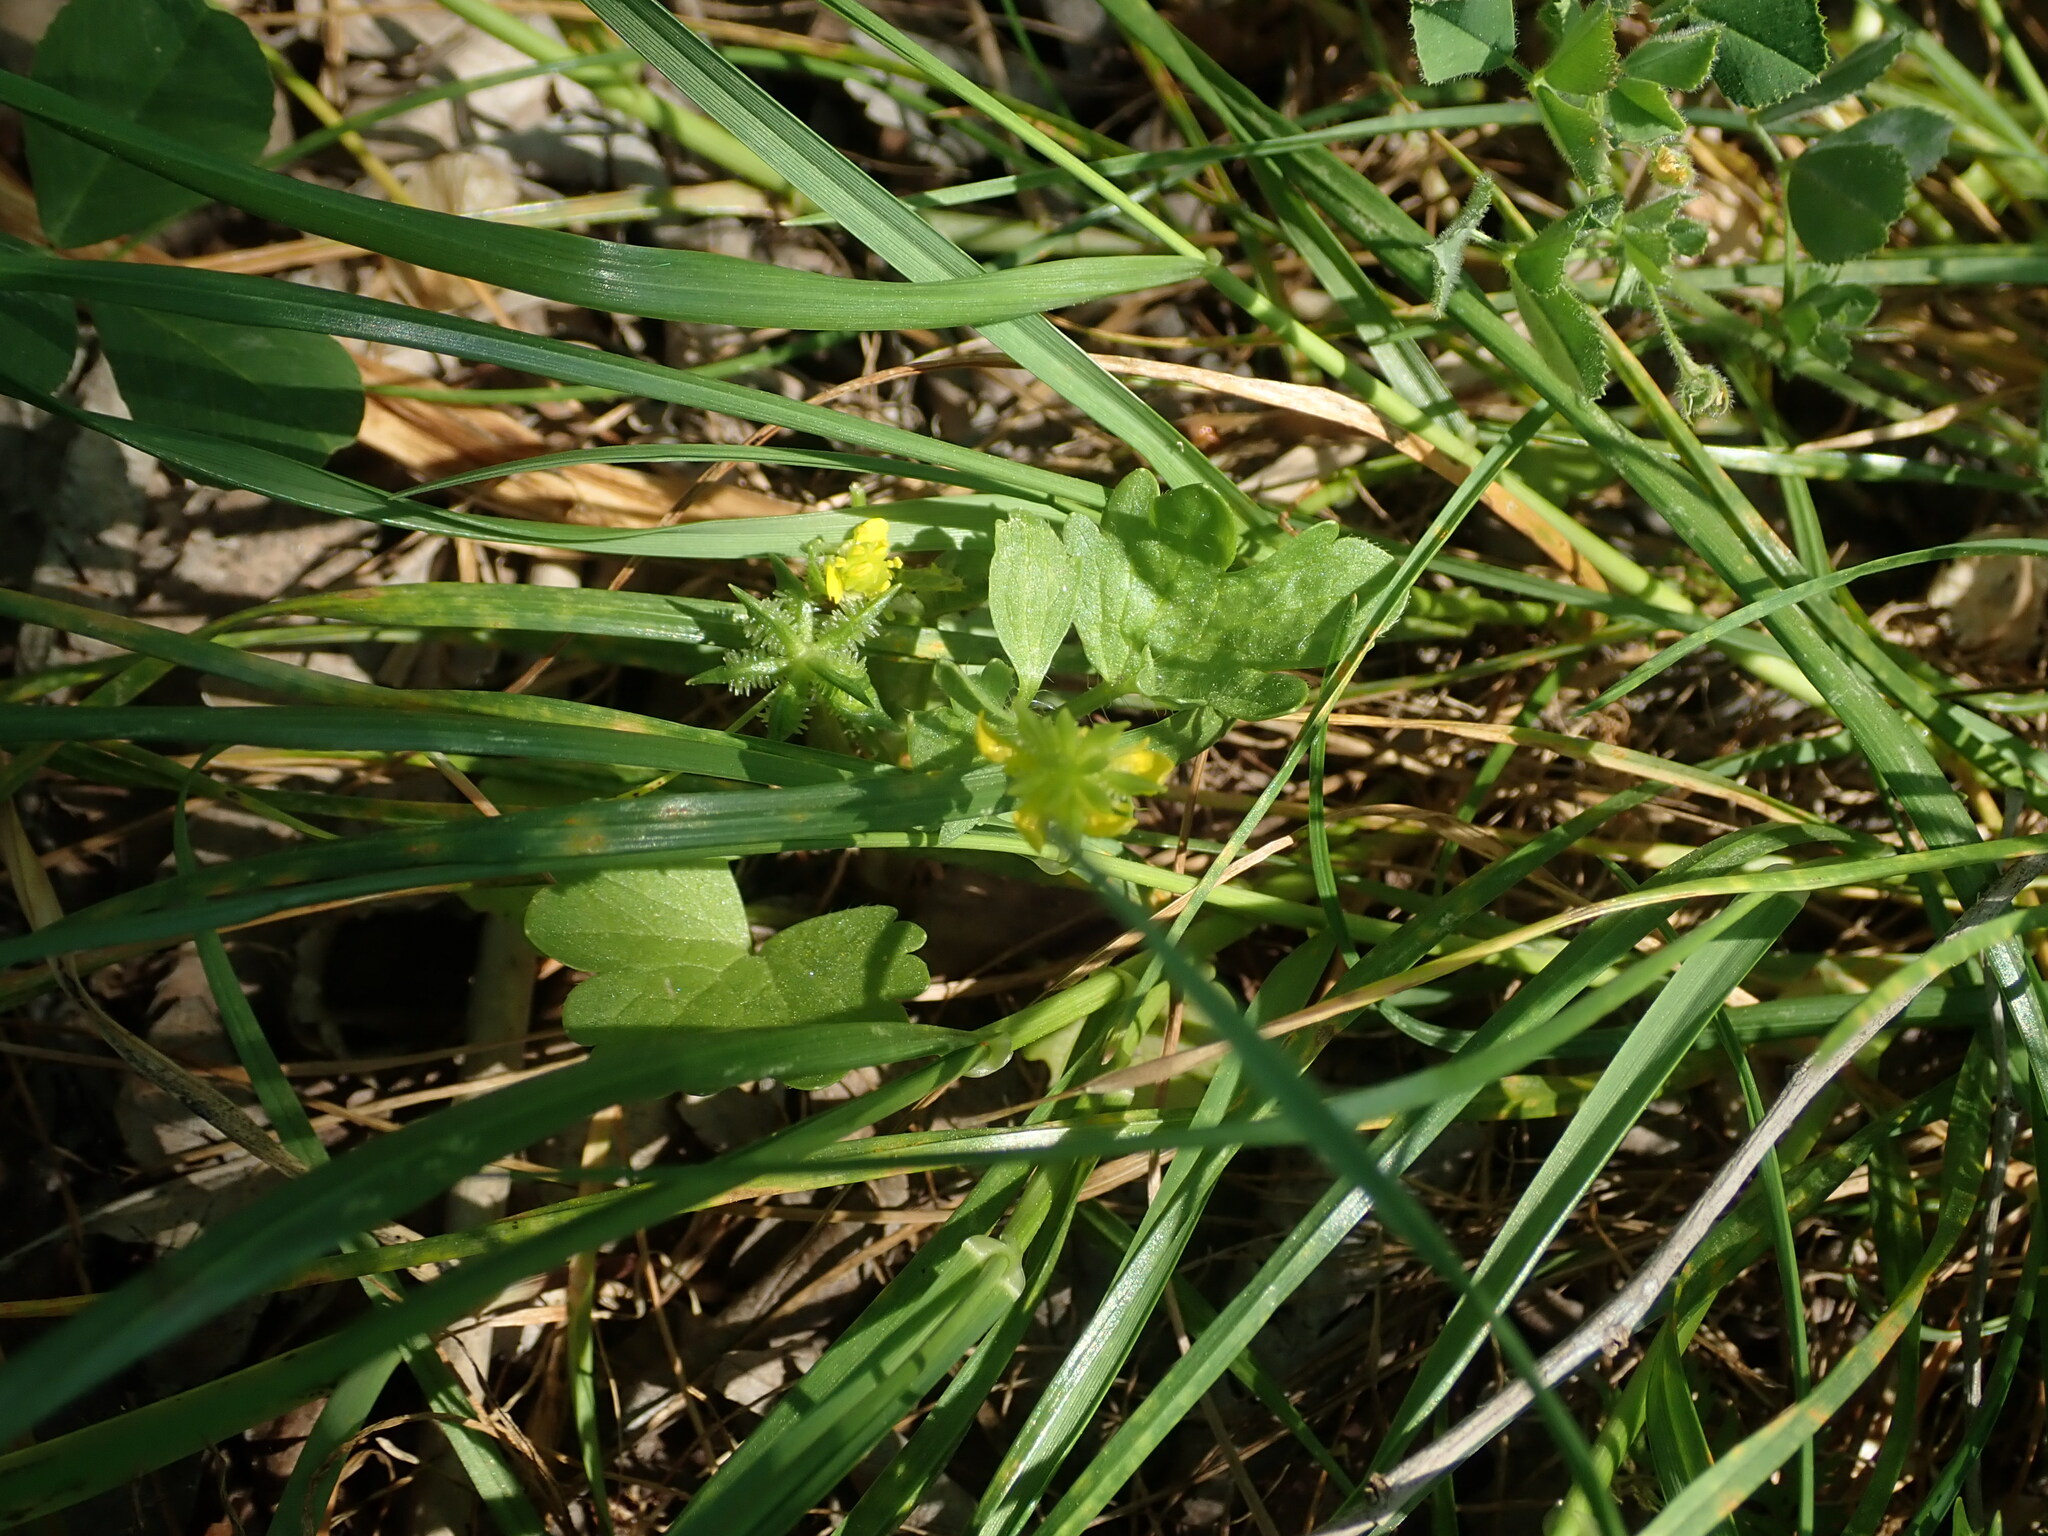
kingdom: Plantae
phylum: Tracheophyta
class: Magnoliopsida
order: Ranunculales
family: Ranunculaceae
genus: Ranunculus
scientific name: Ranunculus muricatus
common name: Rough-fruited buttercup
